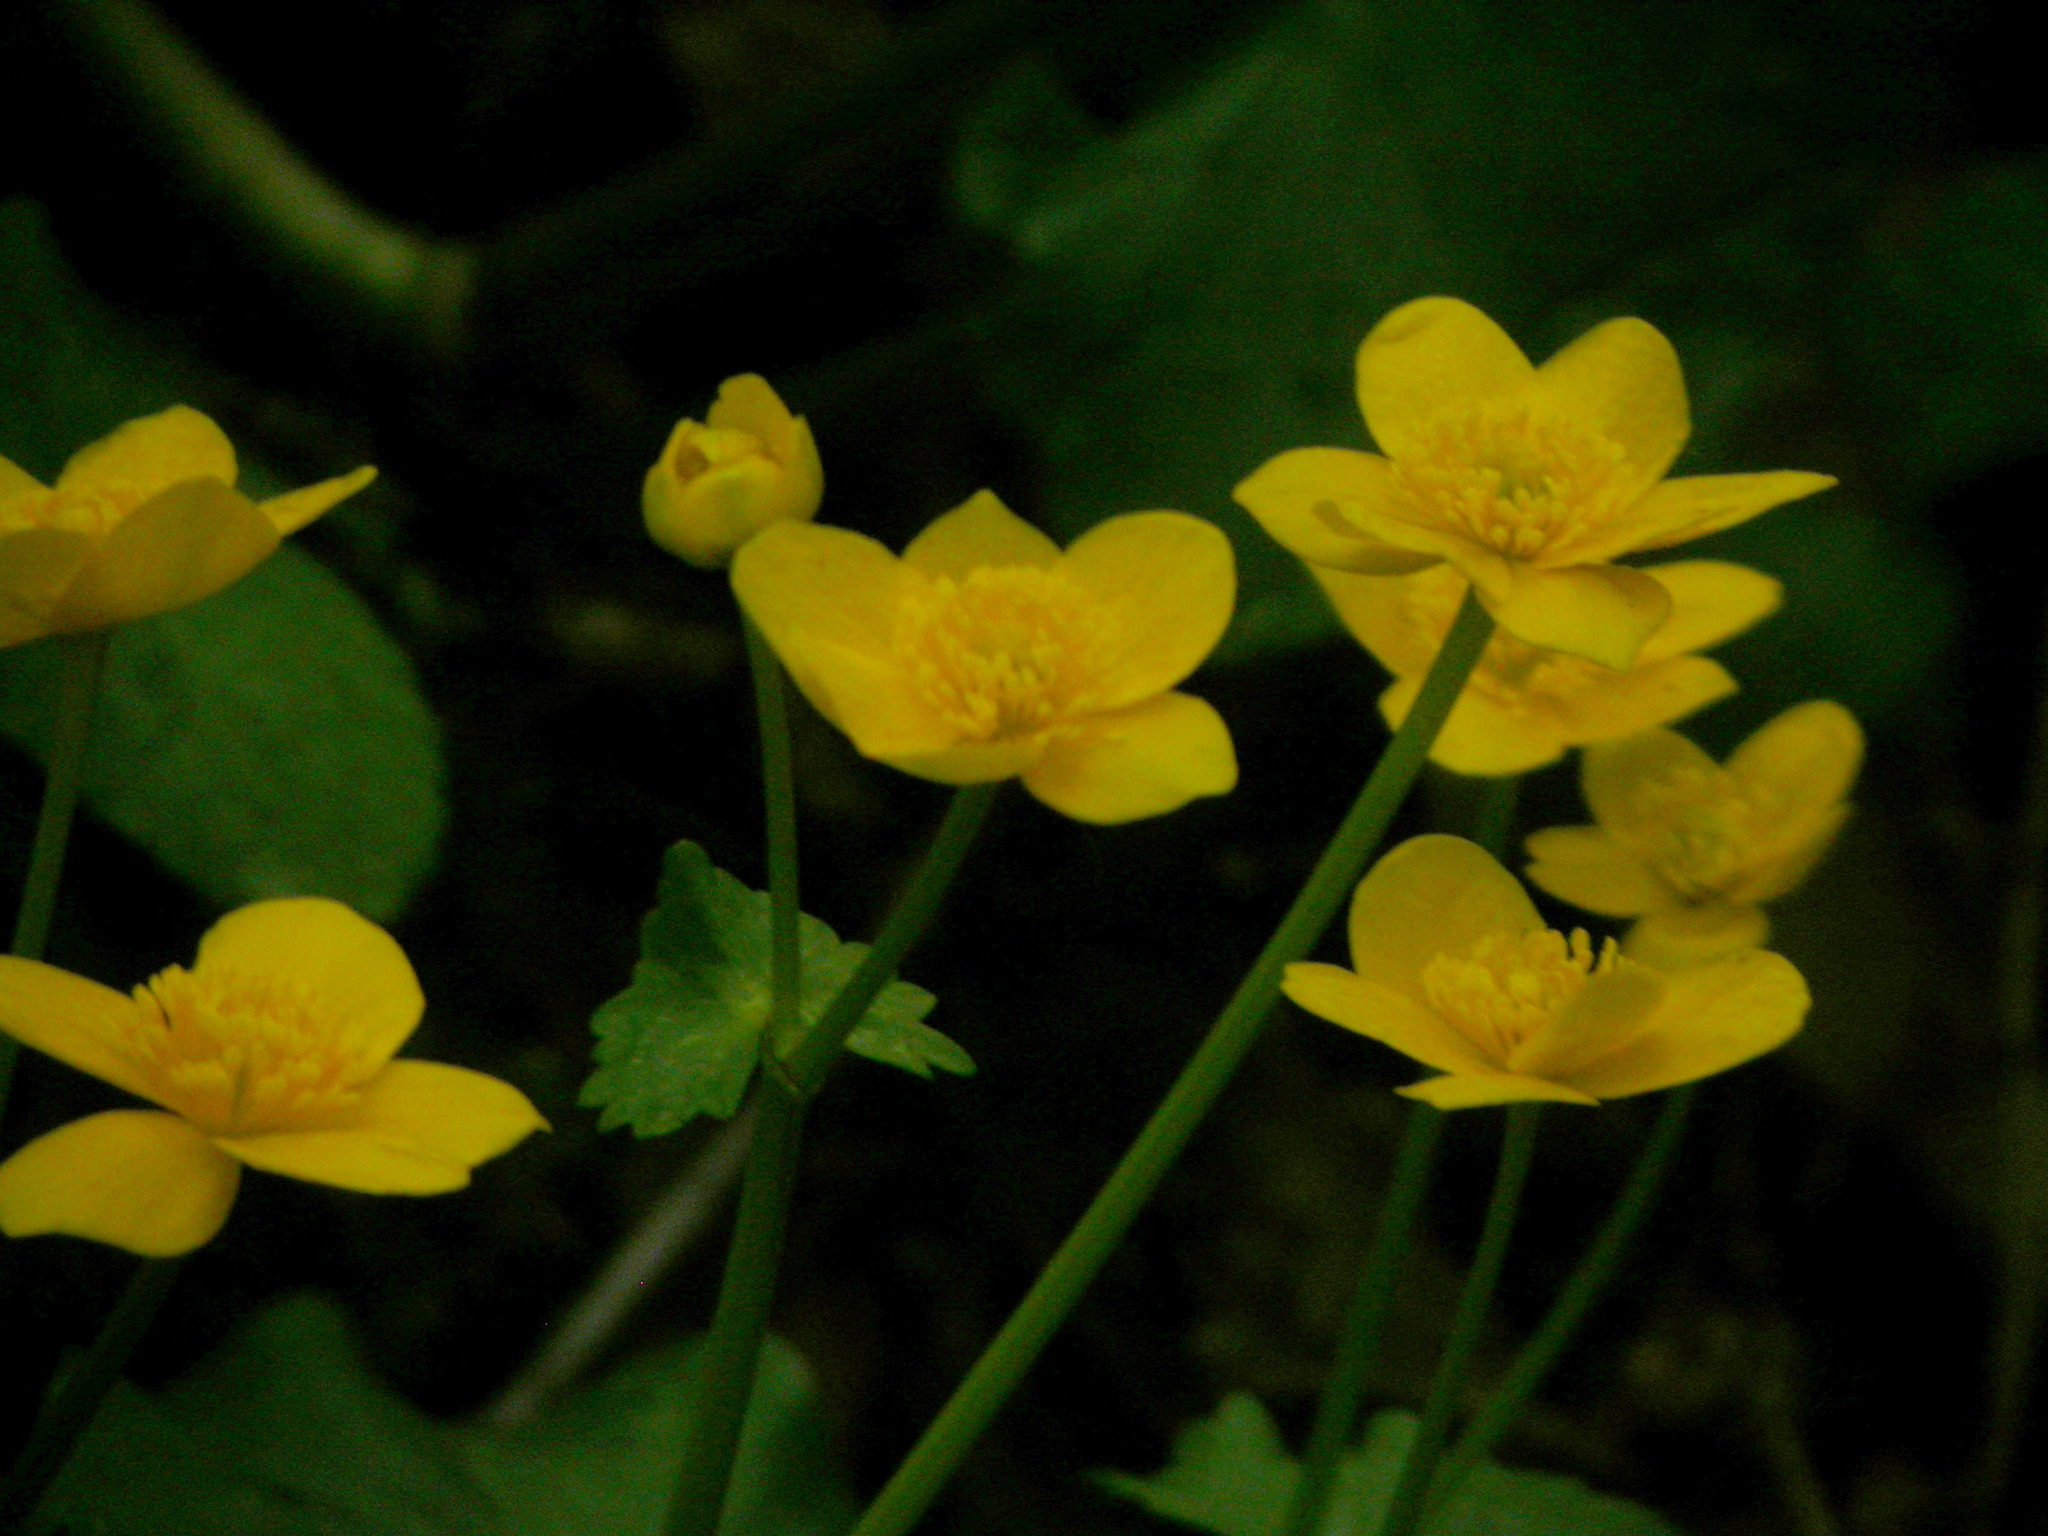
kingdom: Plantae
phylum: Tracheophyta
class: Magnoliopsida
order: Ranunculales
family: Ranunculaceae
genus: Caltha
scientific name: Caltha palustris
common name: Marsh marigold
